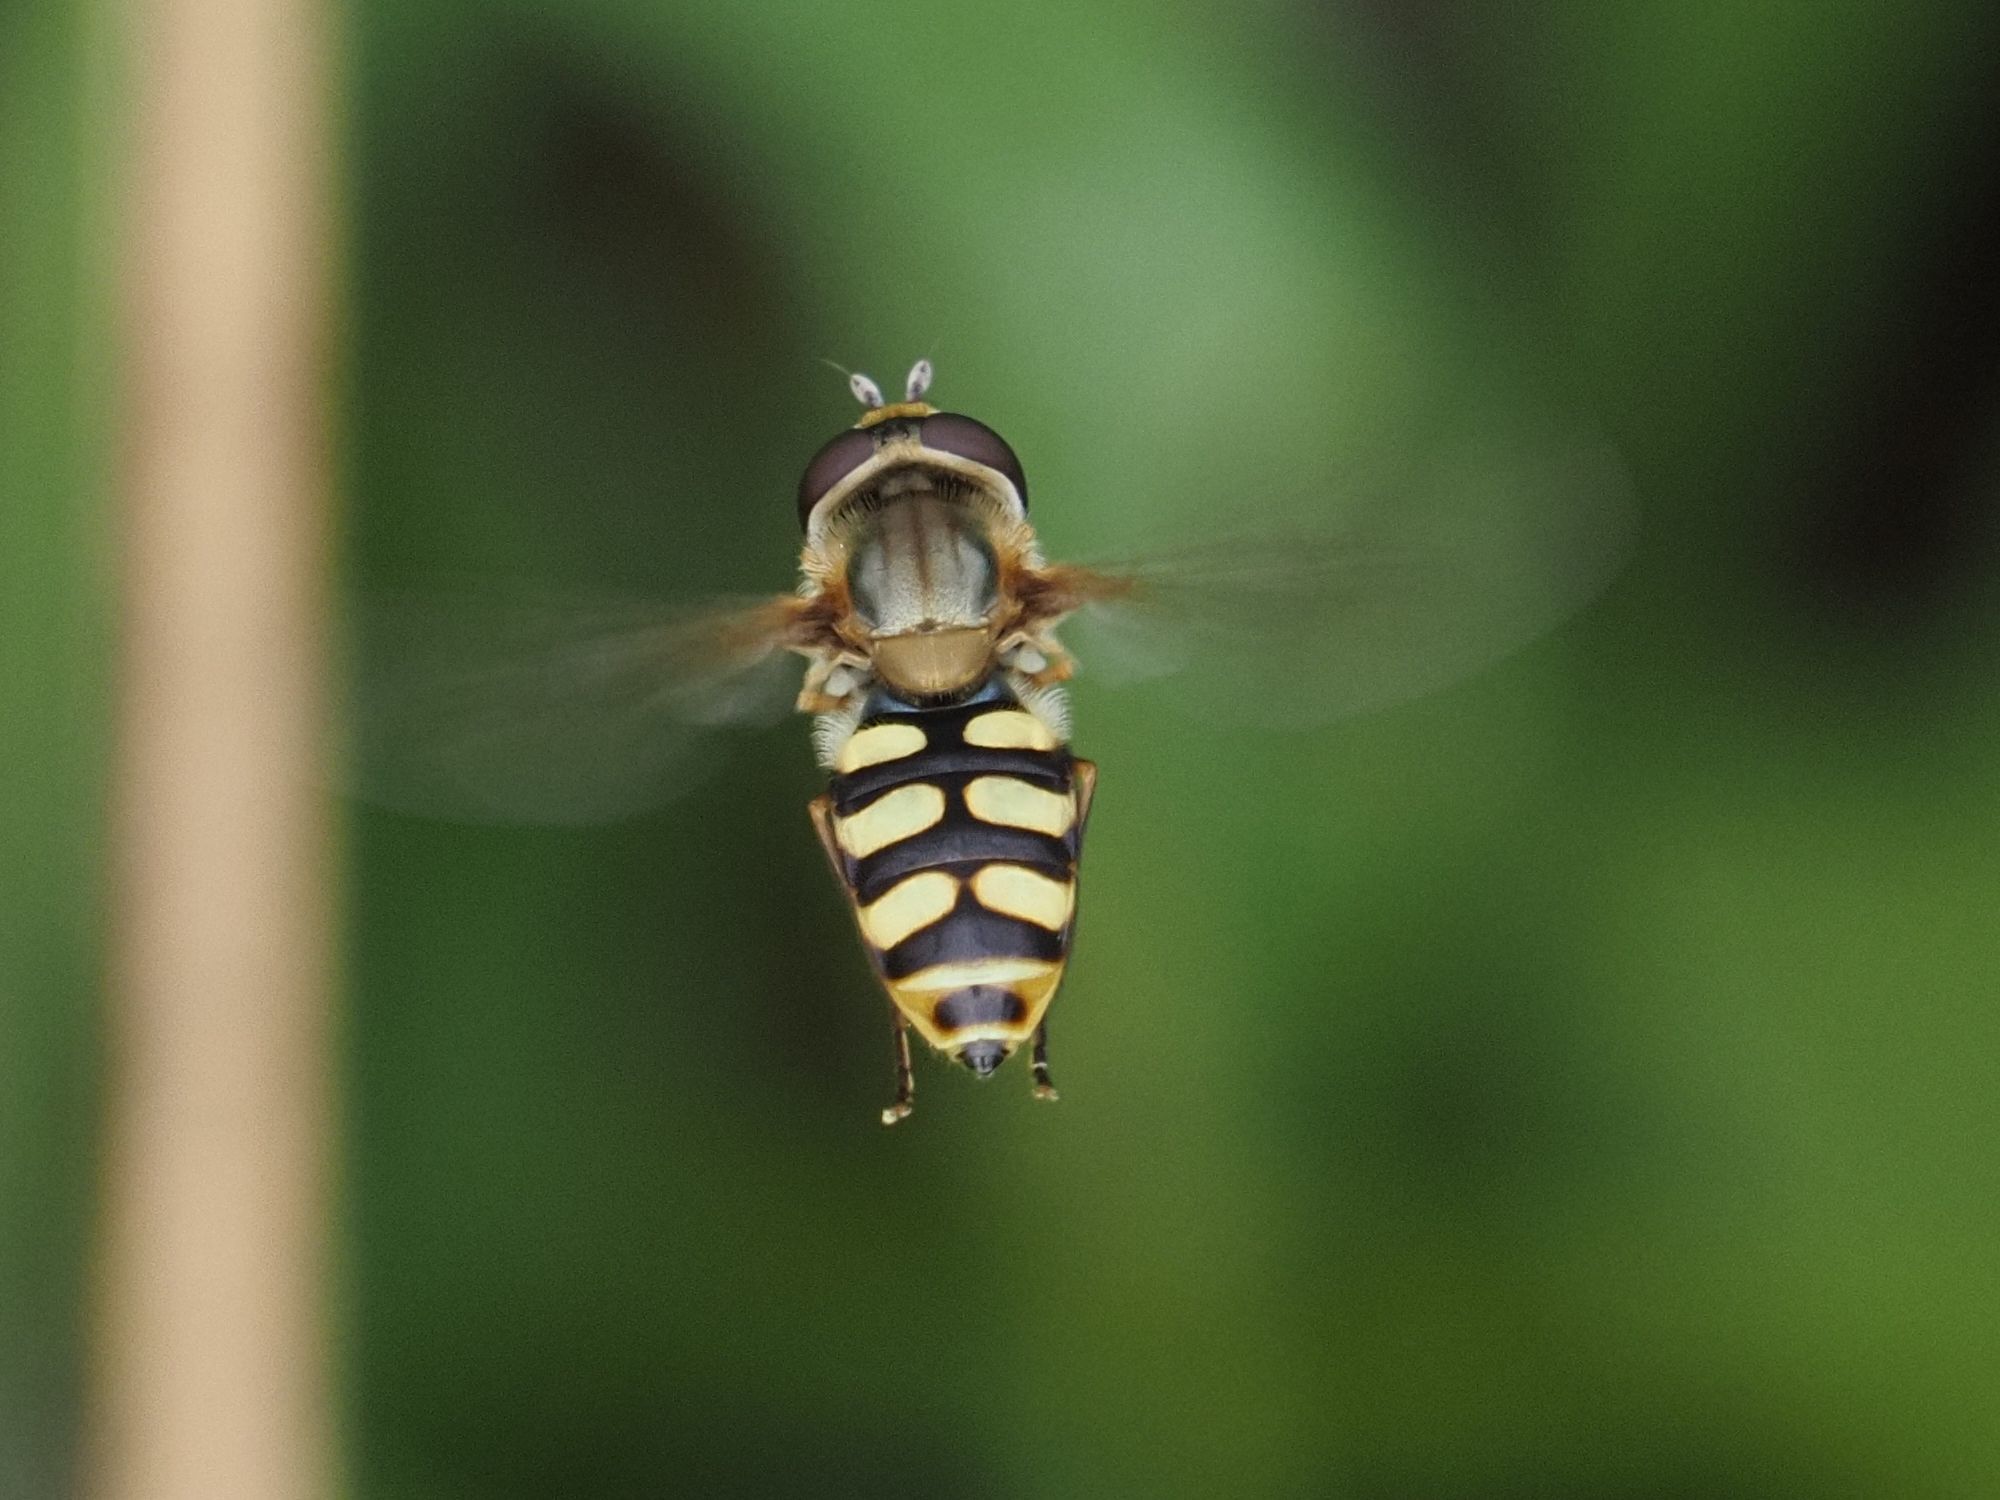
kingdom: Animalia
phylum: Arthropoda
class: Insecta
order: Diptera
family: Syrphidae
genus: Eupeodes
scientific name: Eupeodes corollae
